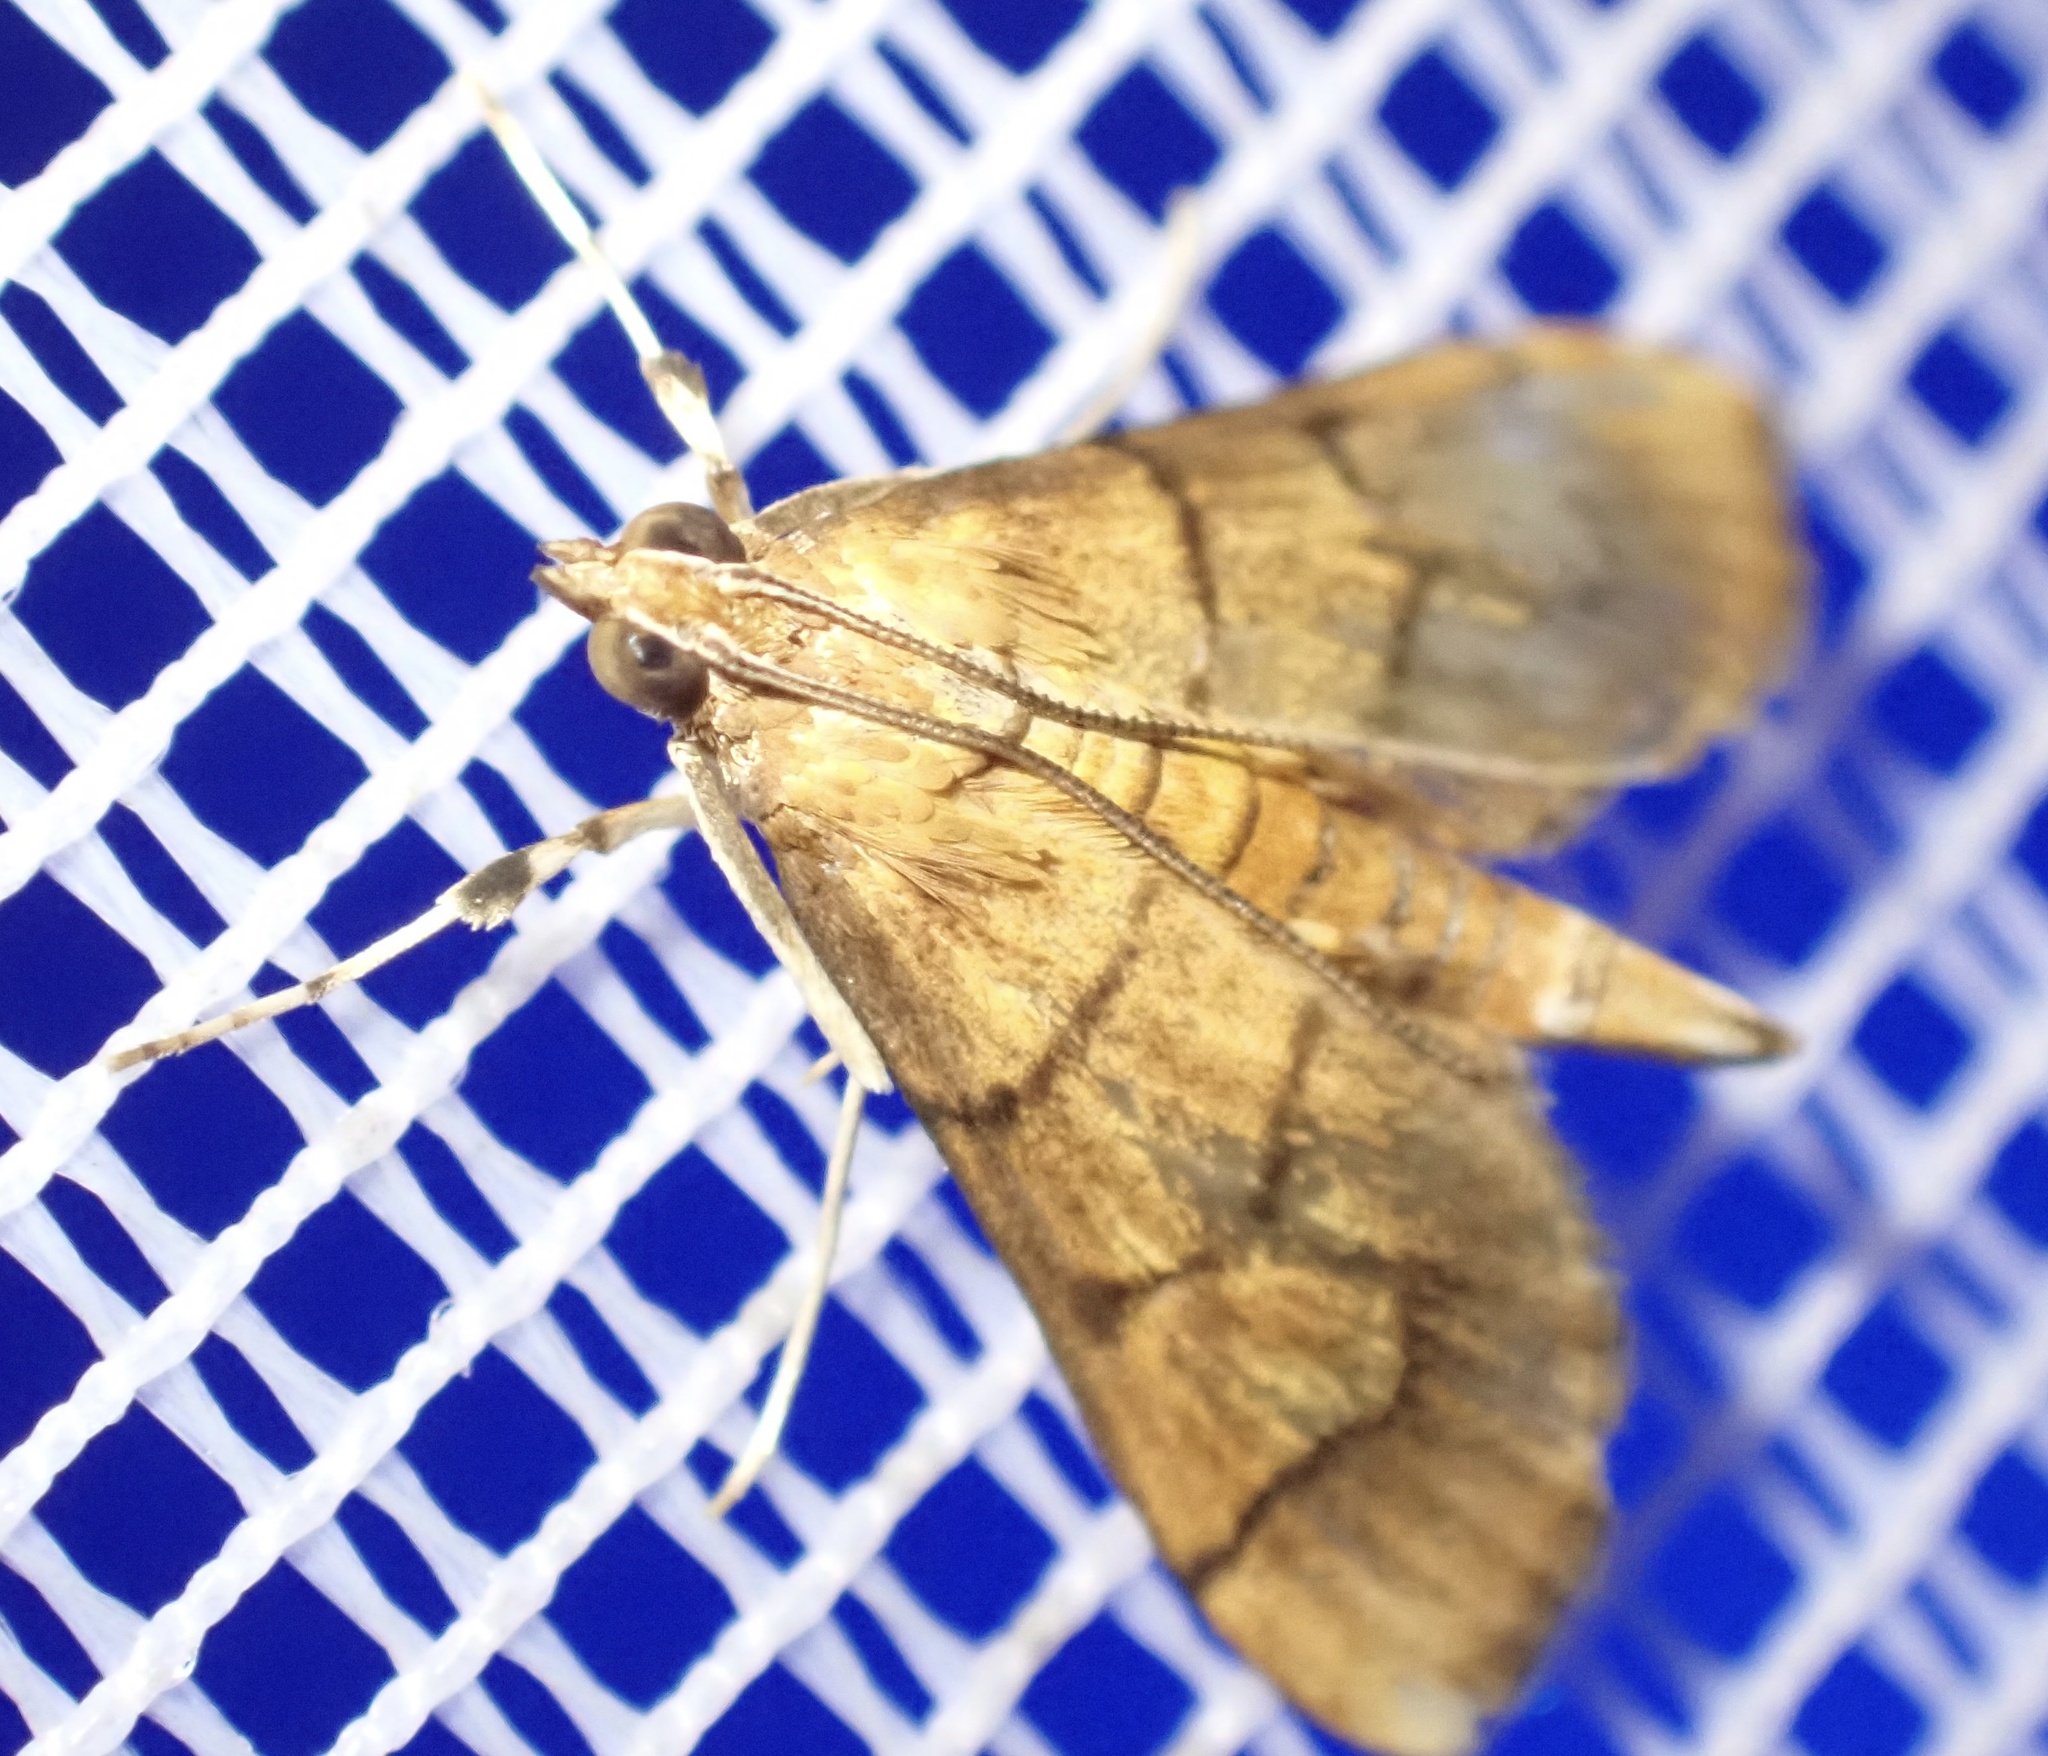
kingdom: Animalia
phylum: Arthropoda
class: Insecta
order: Lepidoptera
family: Crambidae
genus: Orphanostigma
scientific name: Orphanostigma abruptalis
